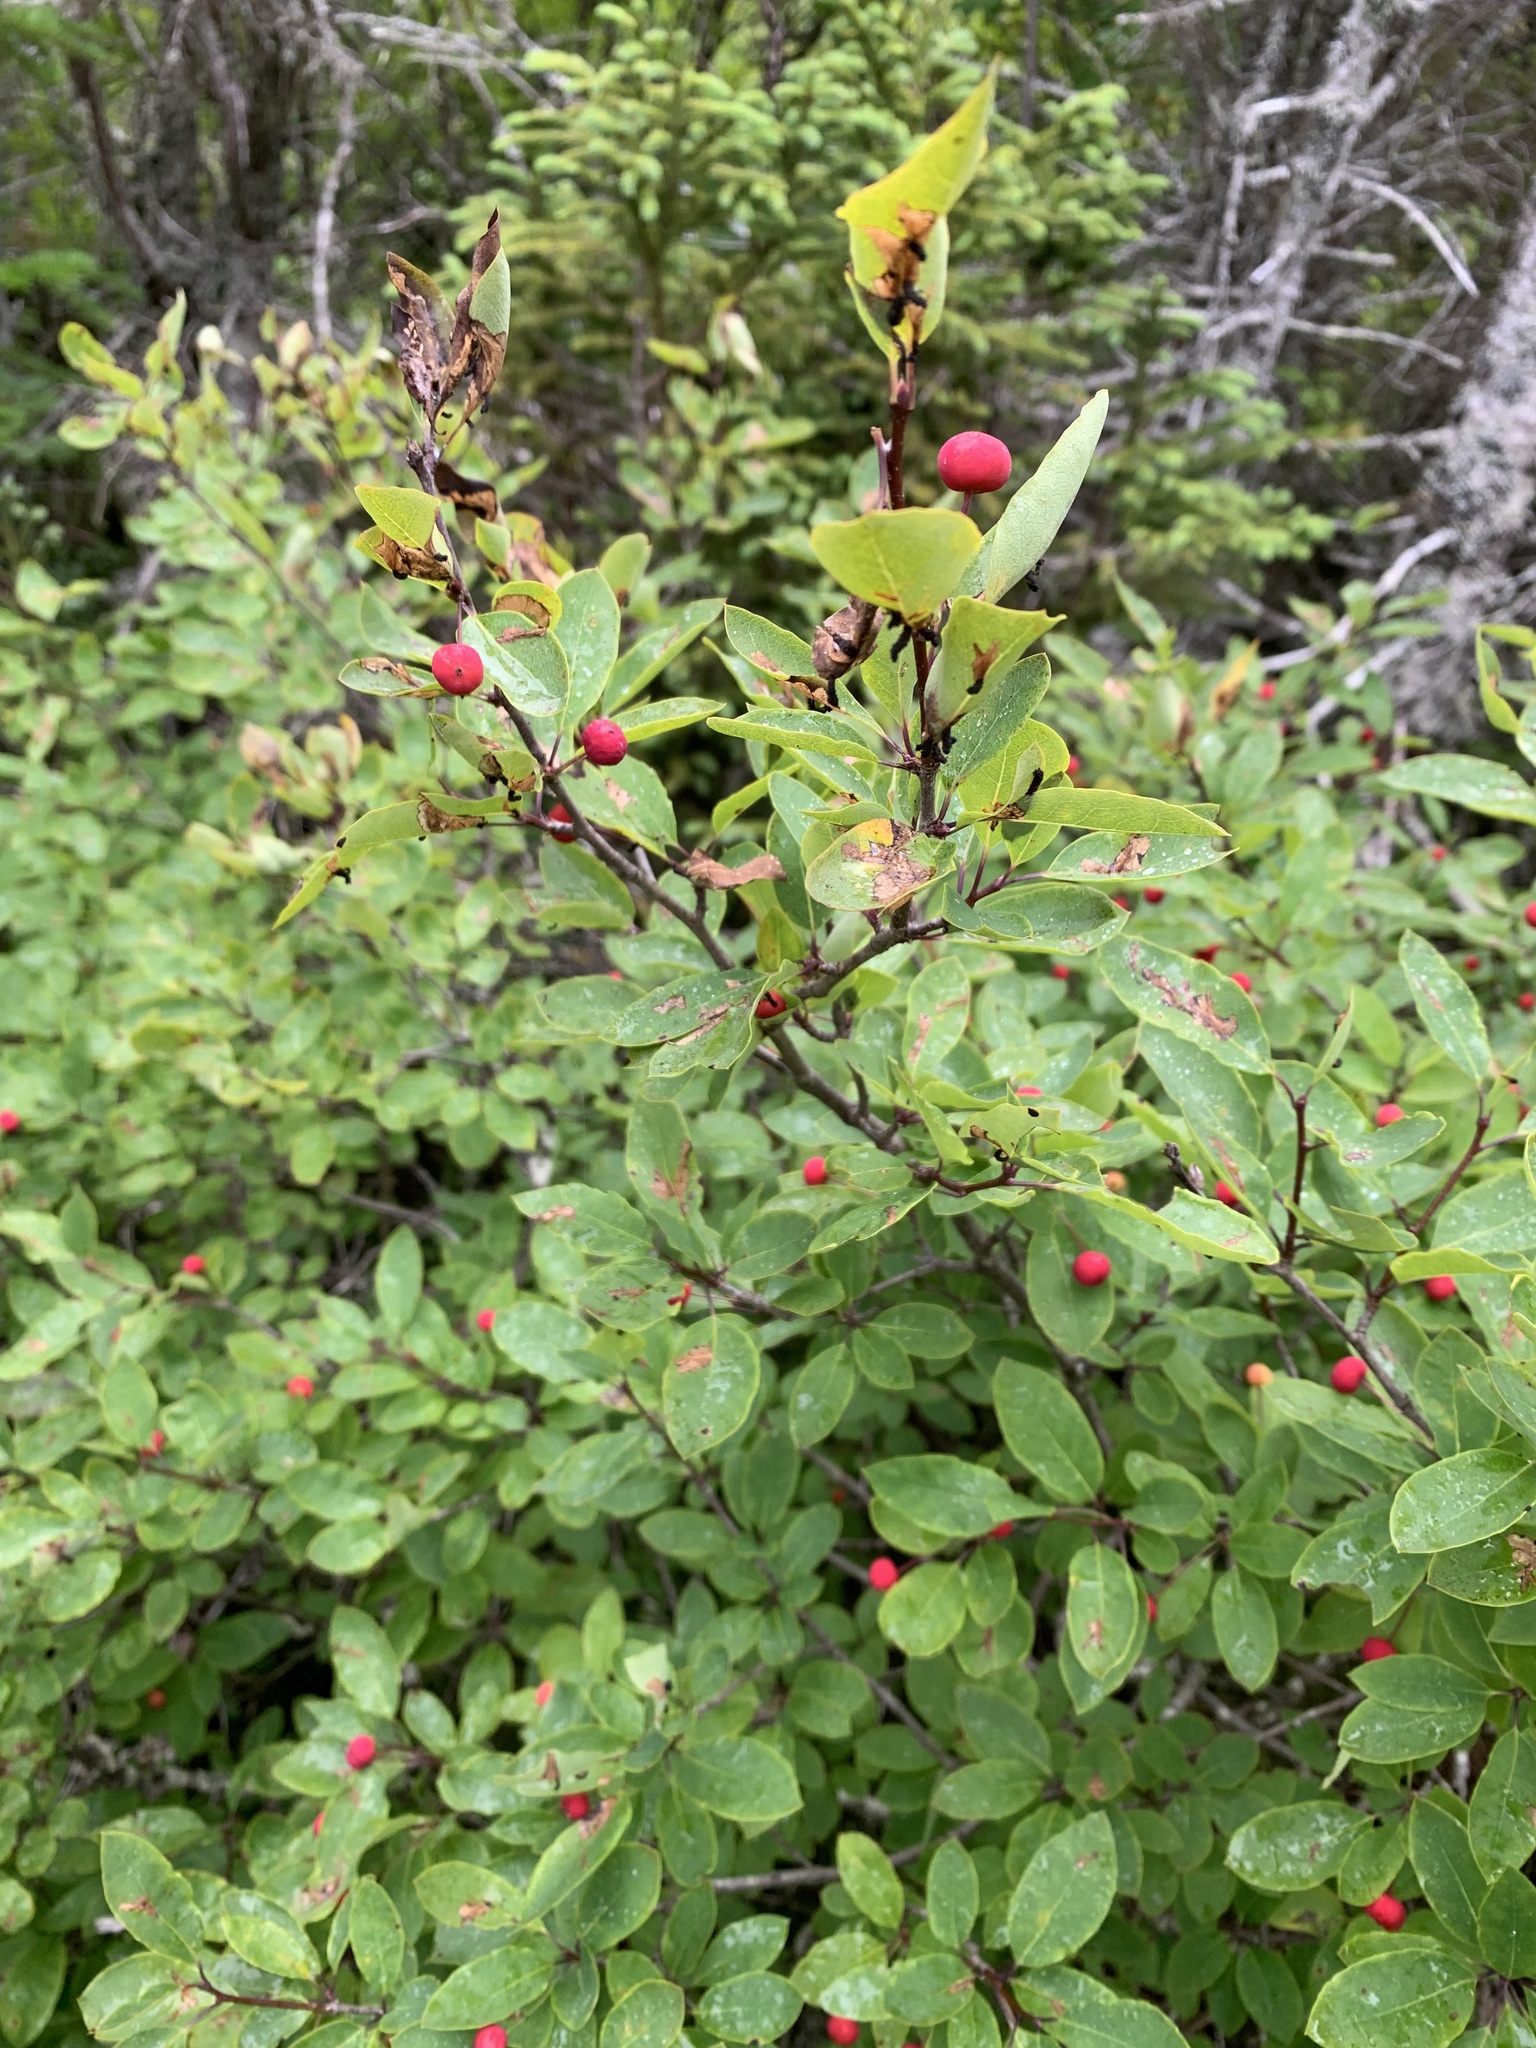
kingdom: Plantae
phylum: Tracheophyta
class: Magnoliopsida
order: Aquifoliales
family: Aquifoliaceae
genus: Ilex
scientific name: Ilex mucronata
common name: Catberry
